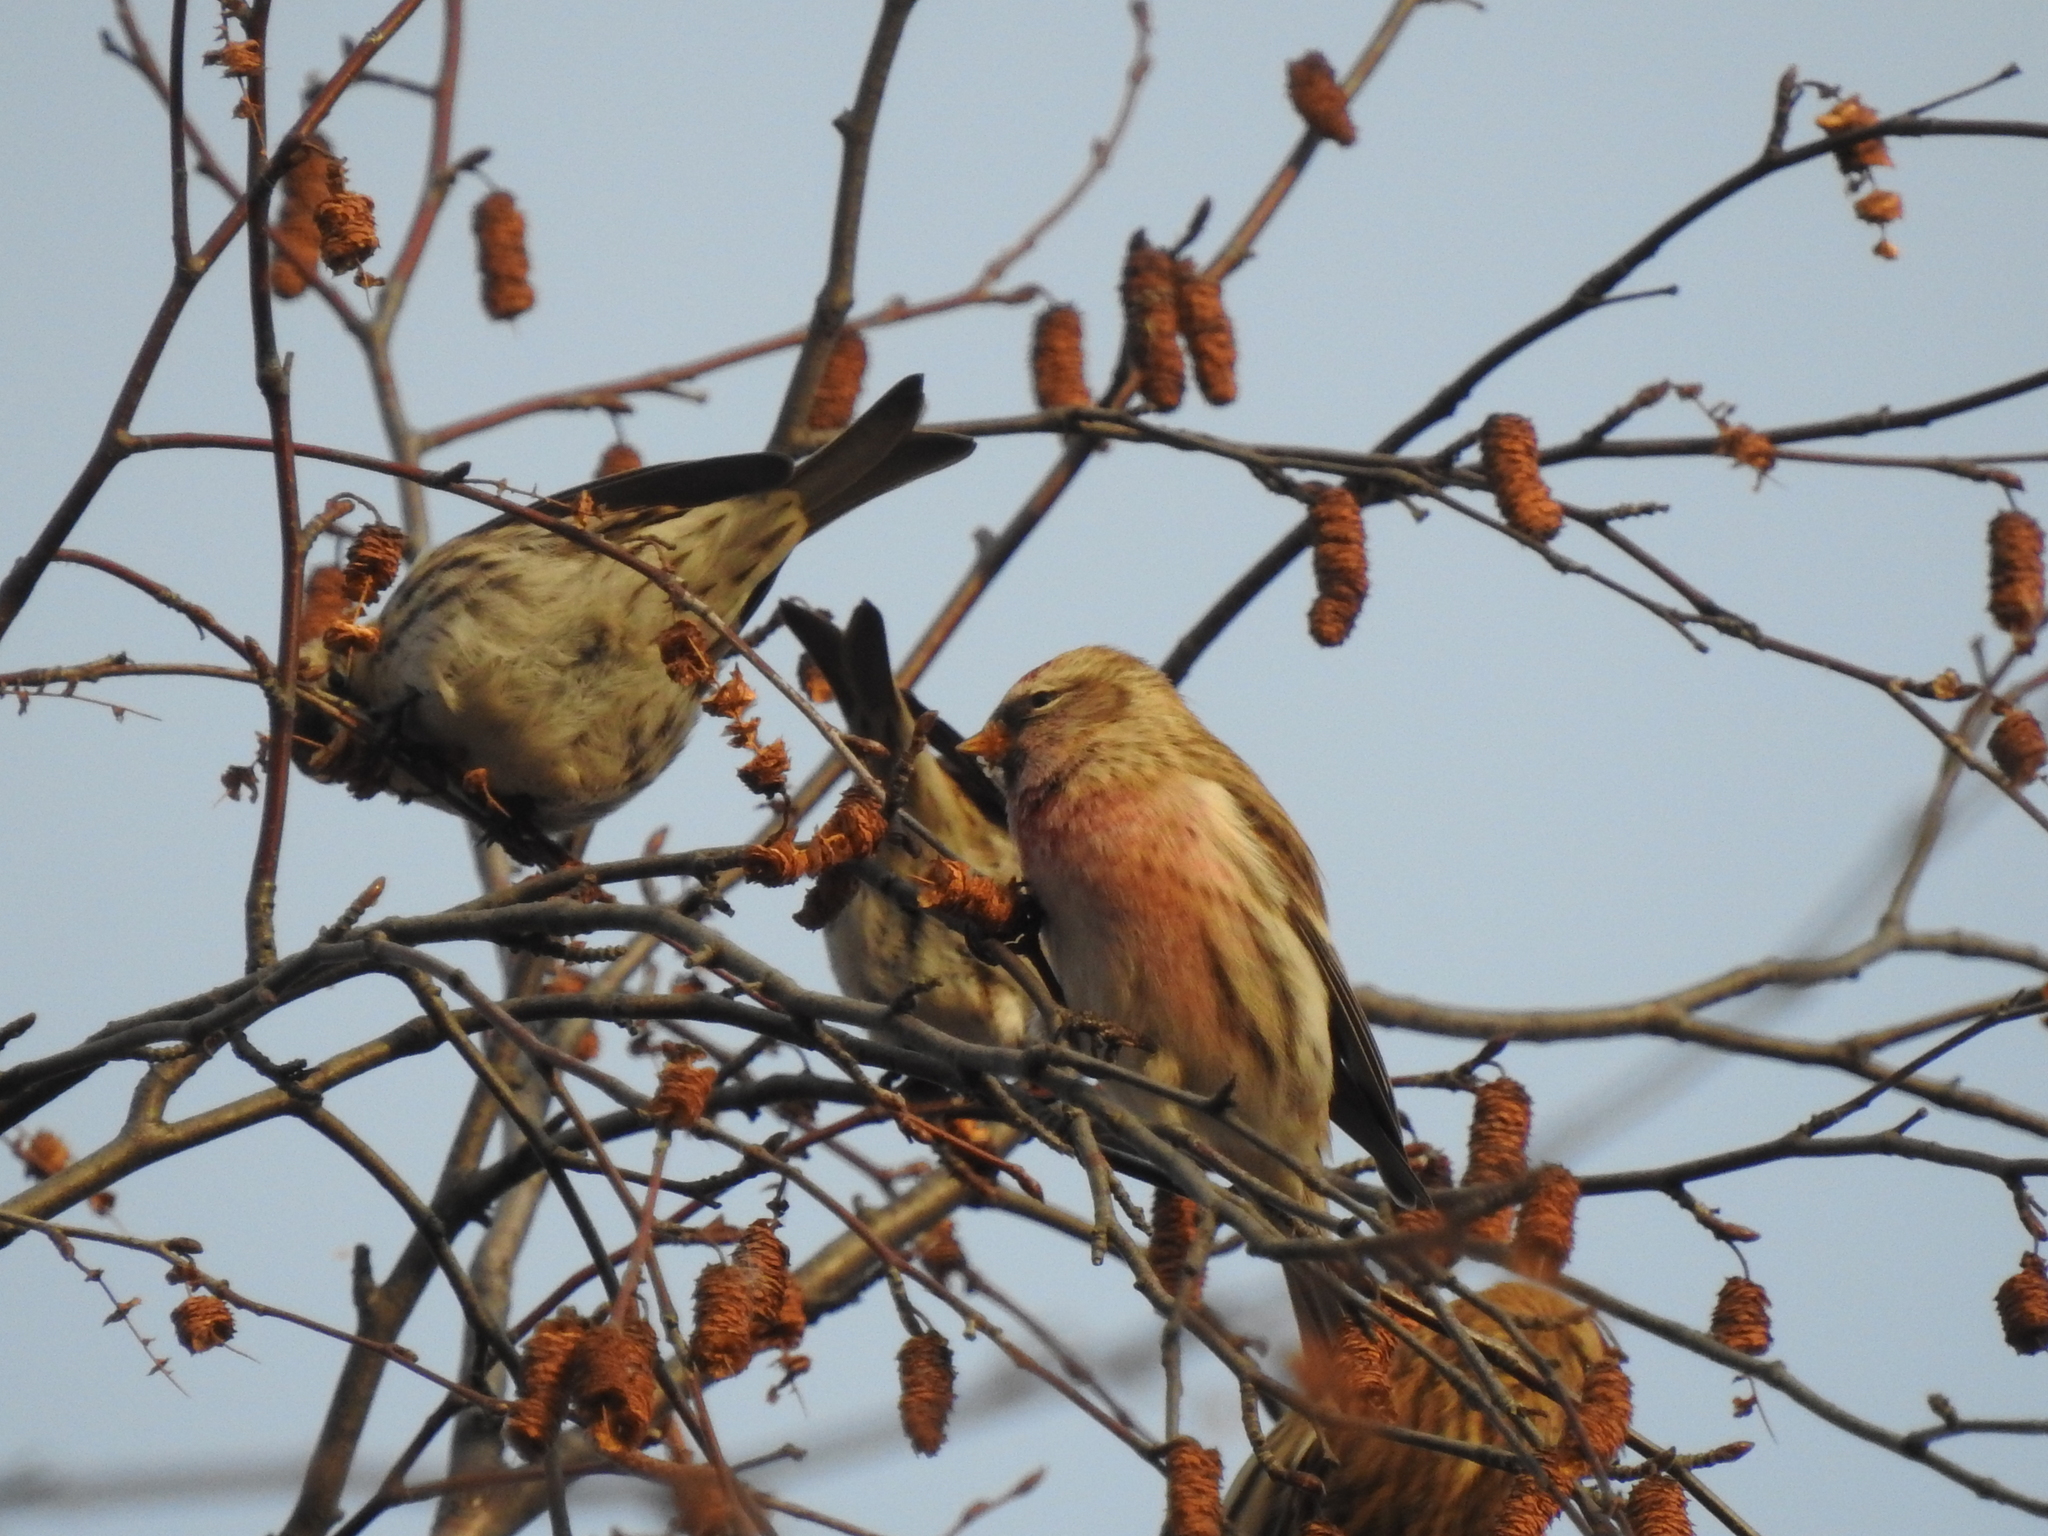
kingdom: Animalia
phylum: Chordata
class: Aves
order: Passeriformes
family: Fringillidae
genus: Acanthis
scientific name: Acanthis flammea
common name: Common redpoll
